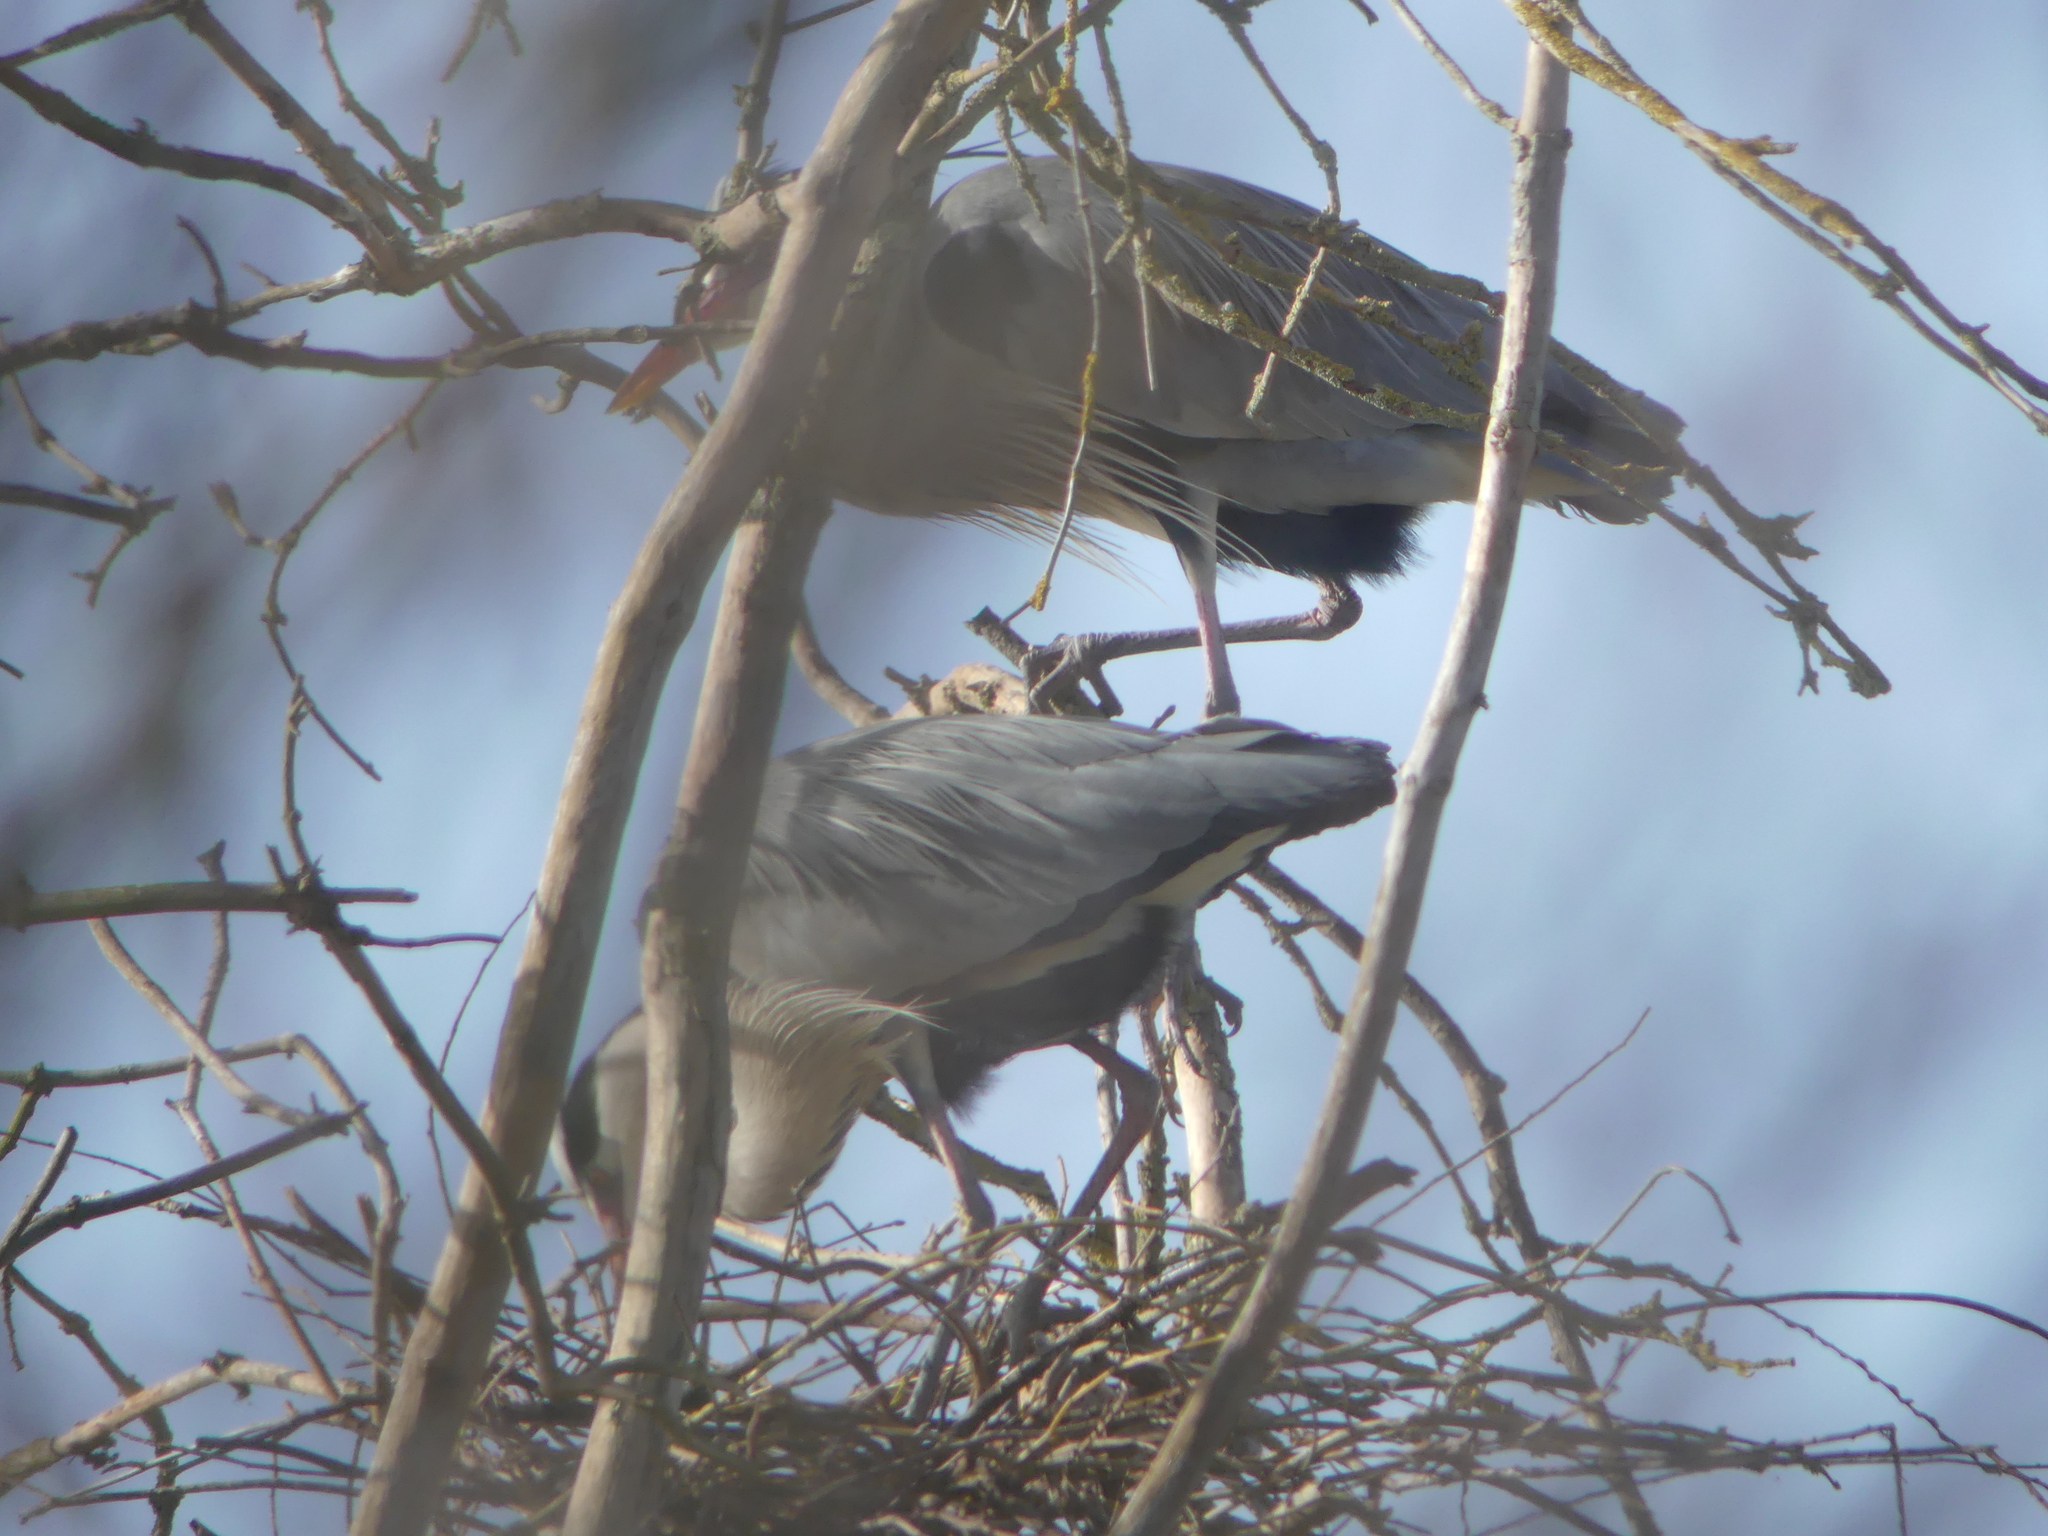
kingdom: Animalia
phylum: Chordata
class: Aves
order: Pelecaniformes
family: Ardeidae
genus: Ardea
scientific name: Ardea cinerea
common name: Grey heron
